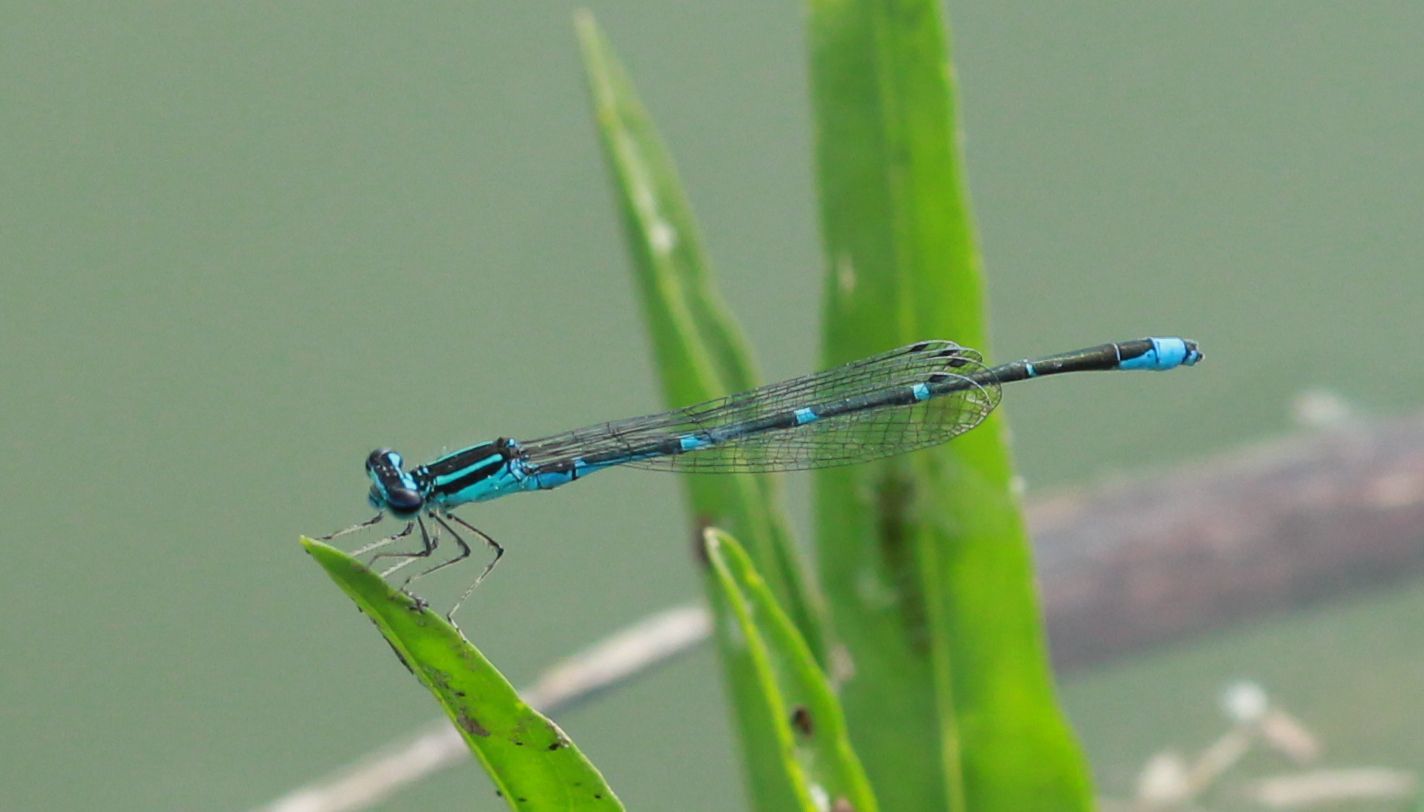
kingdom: Animalia
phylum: Arthropoda
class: Insecta
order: Odonata
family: Coenagrionidae
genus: Enallagma
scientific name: Enallagma exsulans
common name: Stream bluet
